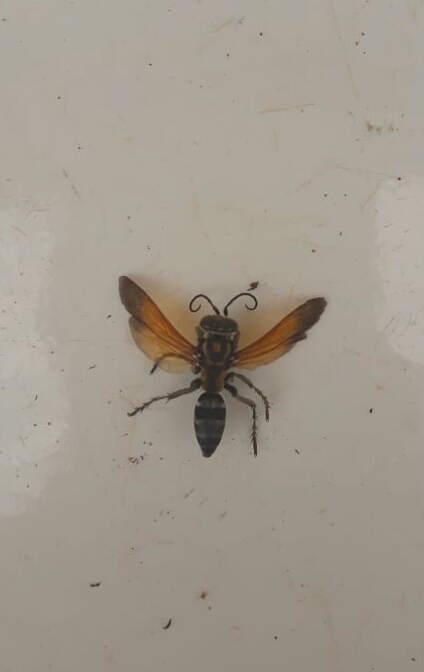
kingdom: Animalia
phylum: Arthropoda
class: Insecta
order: Hymenoptera
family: Crabronidae
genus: Tachytes
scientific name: Tachytes
